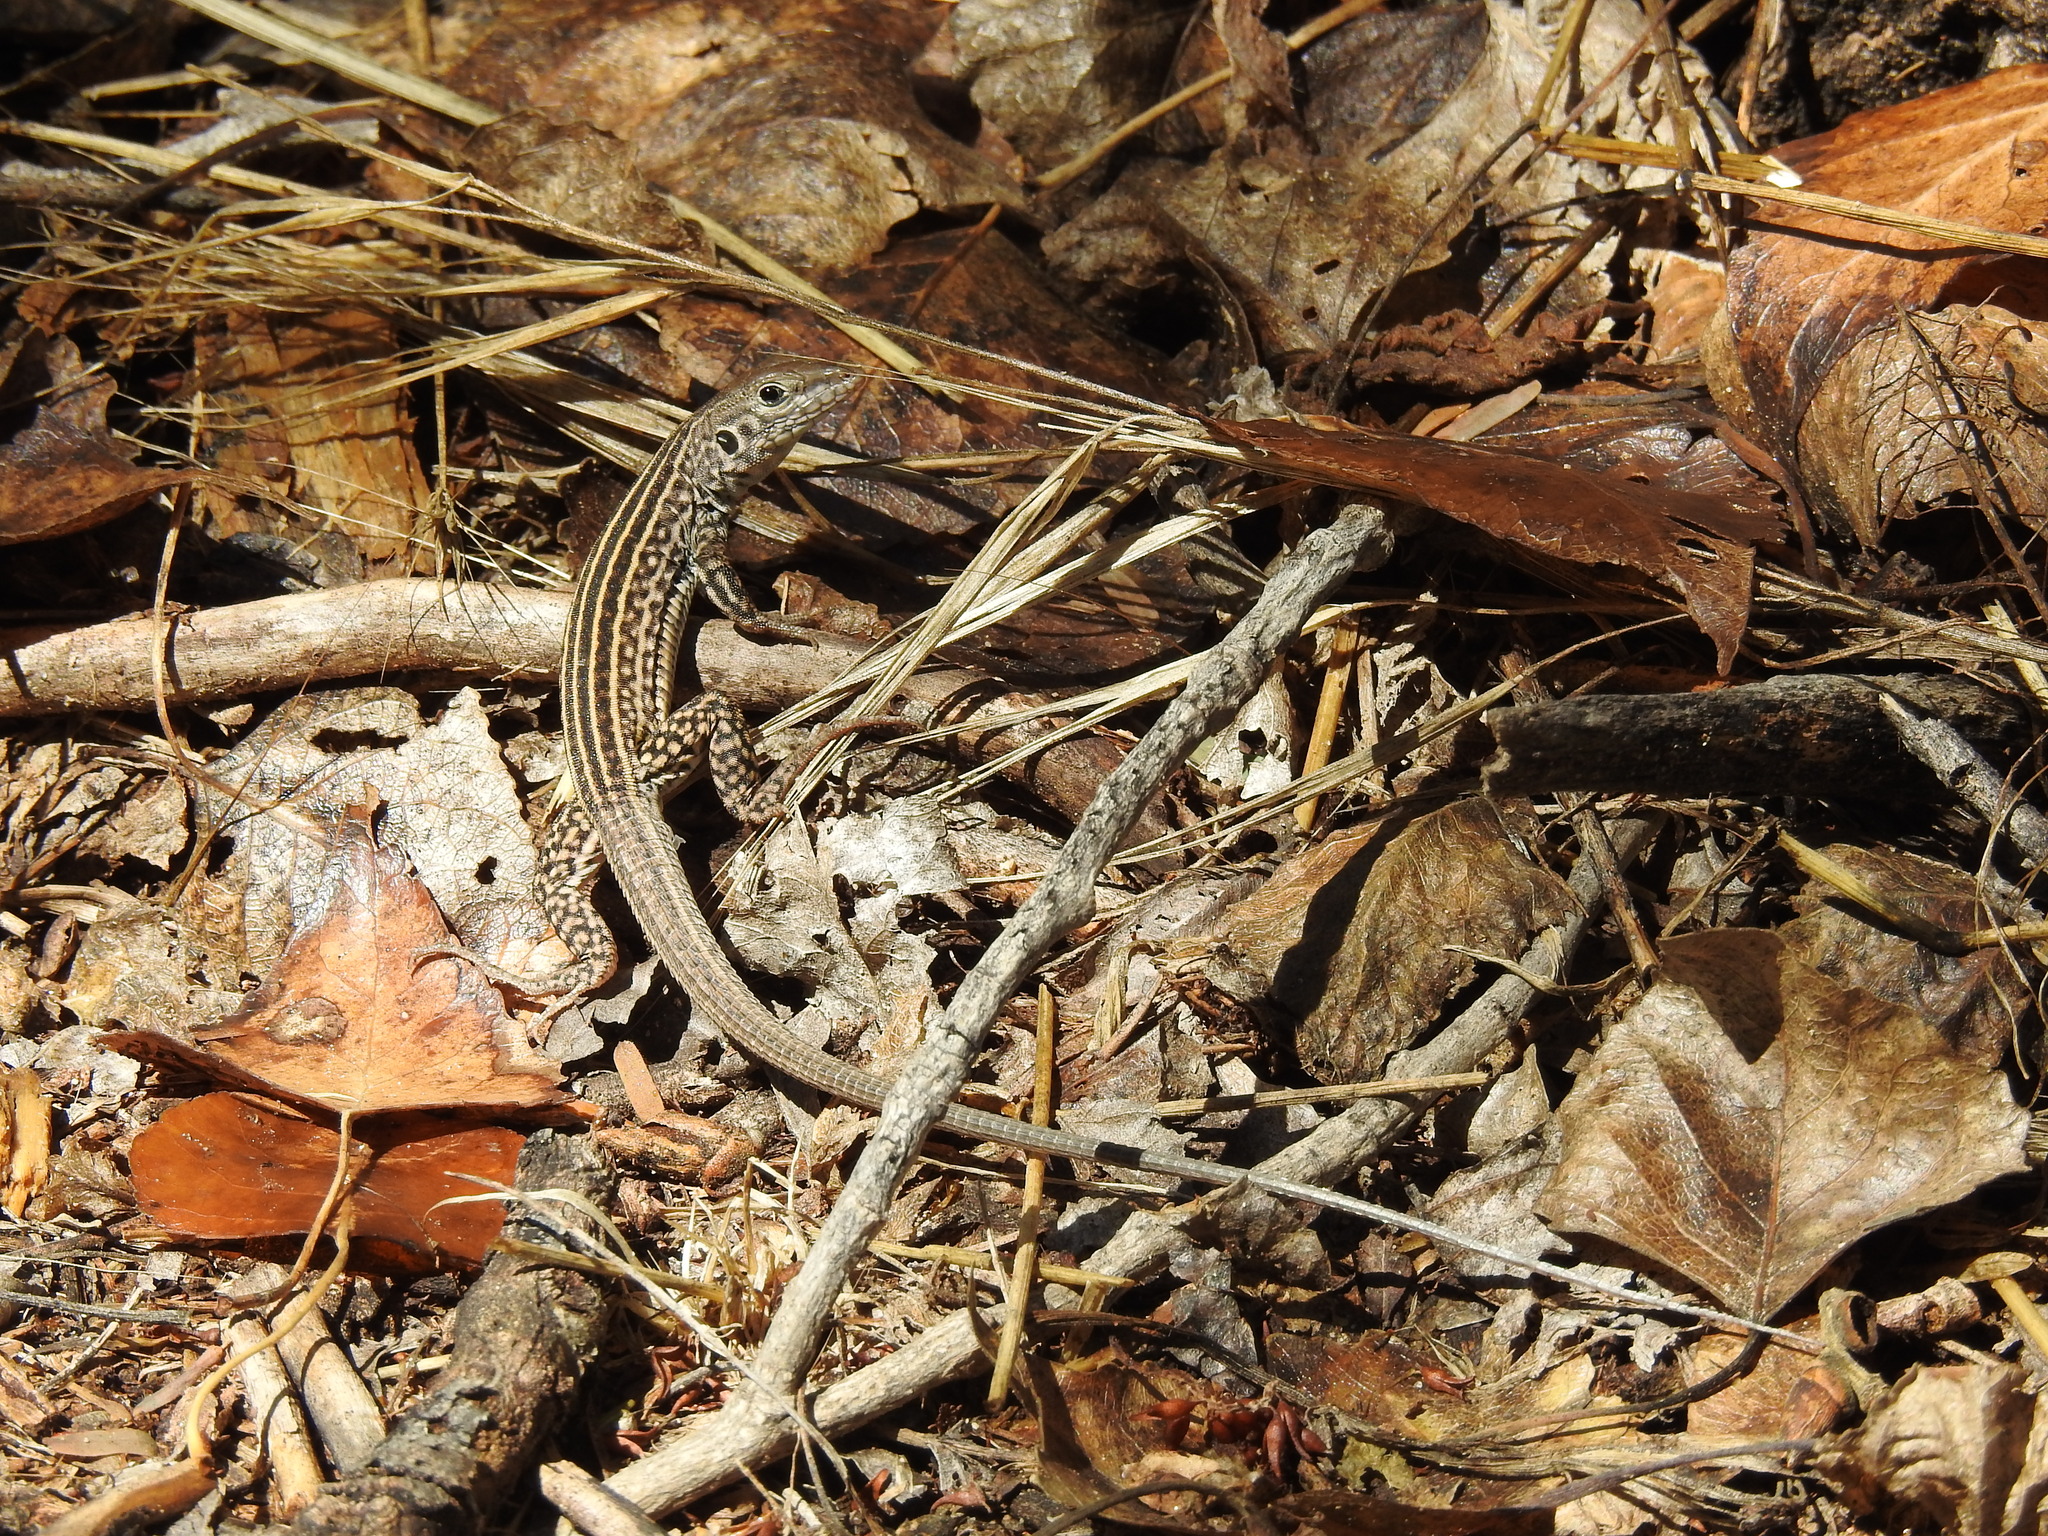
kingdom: Animalia
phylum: Chordata
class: Squamata
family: Teiidae
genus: Aspidoscelis
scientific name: Aspidoscelis tigris
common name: Tiger whiptail
